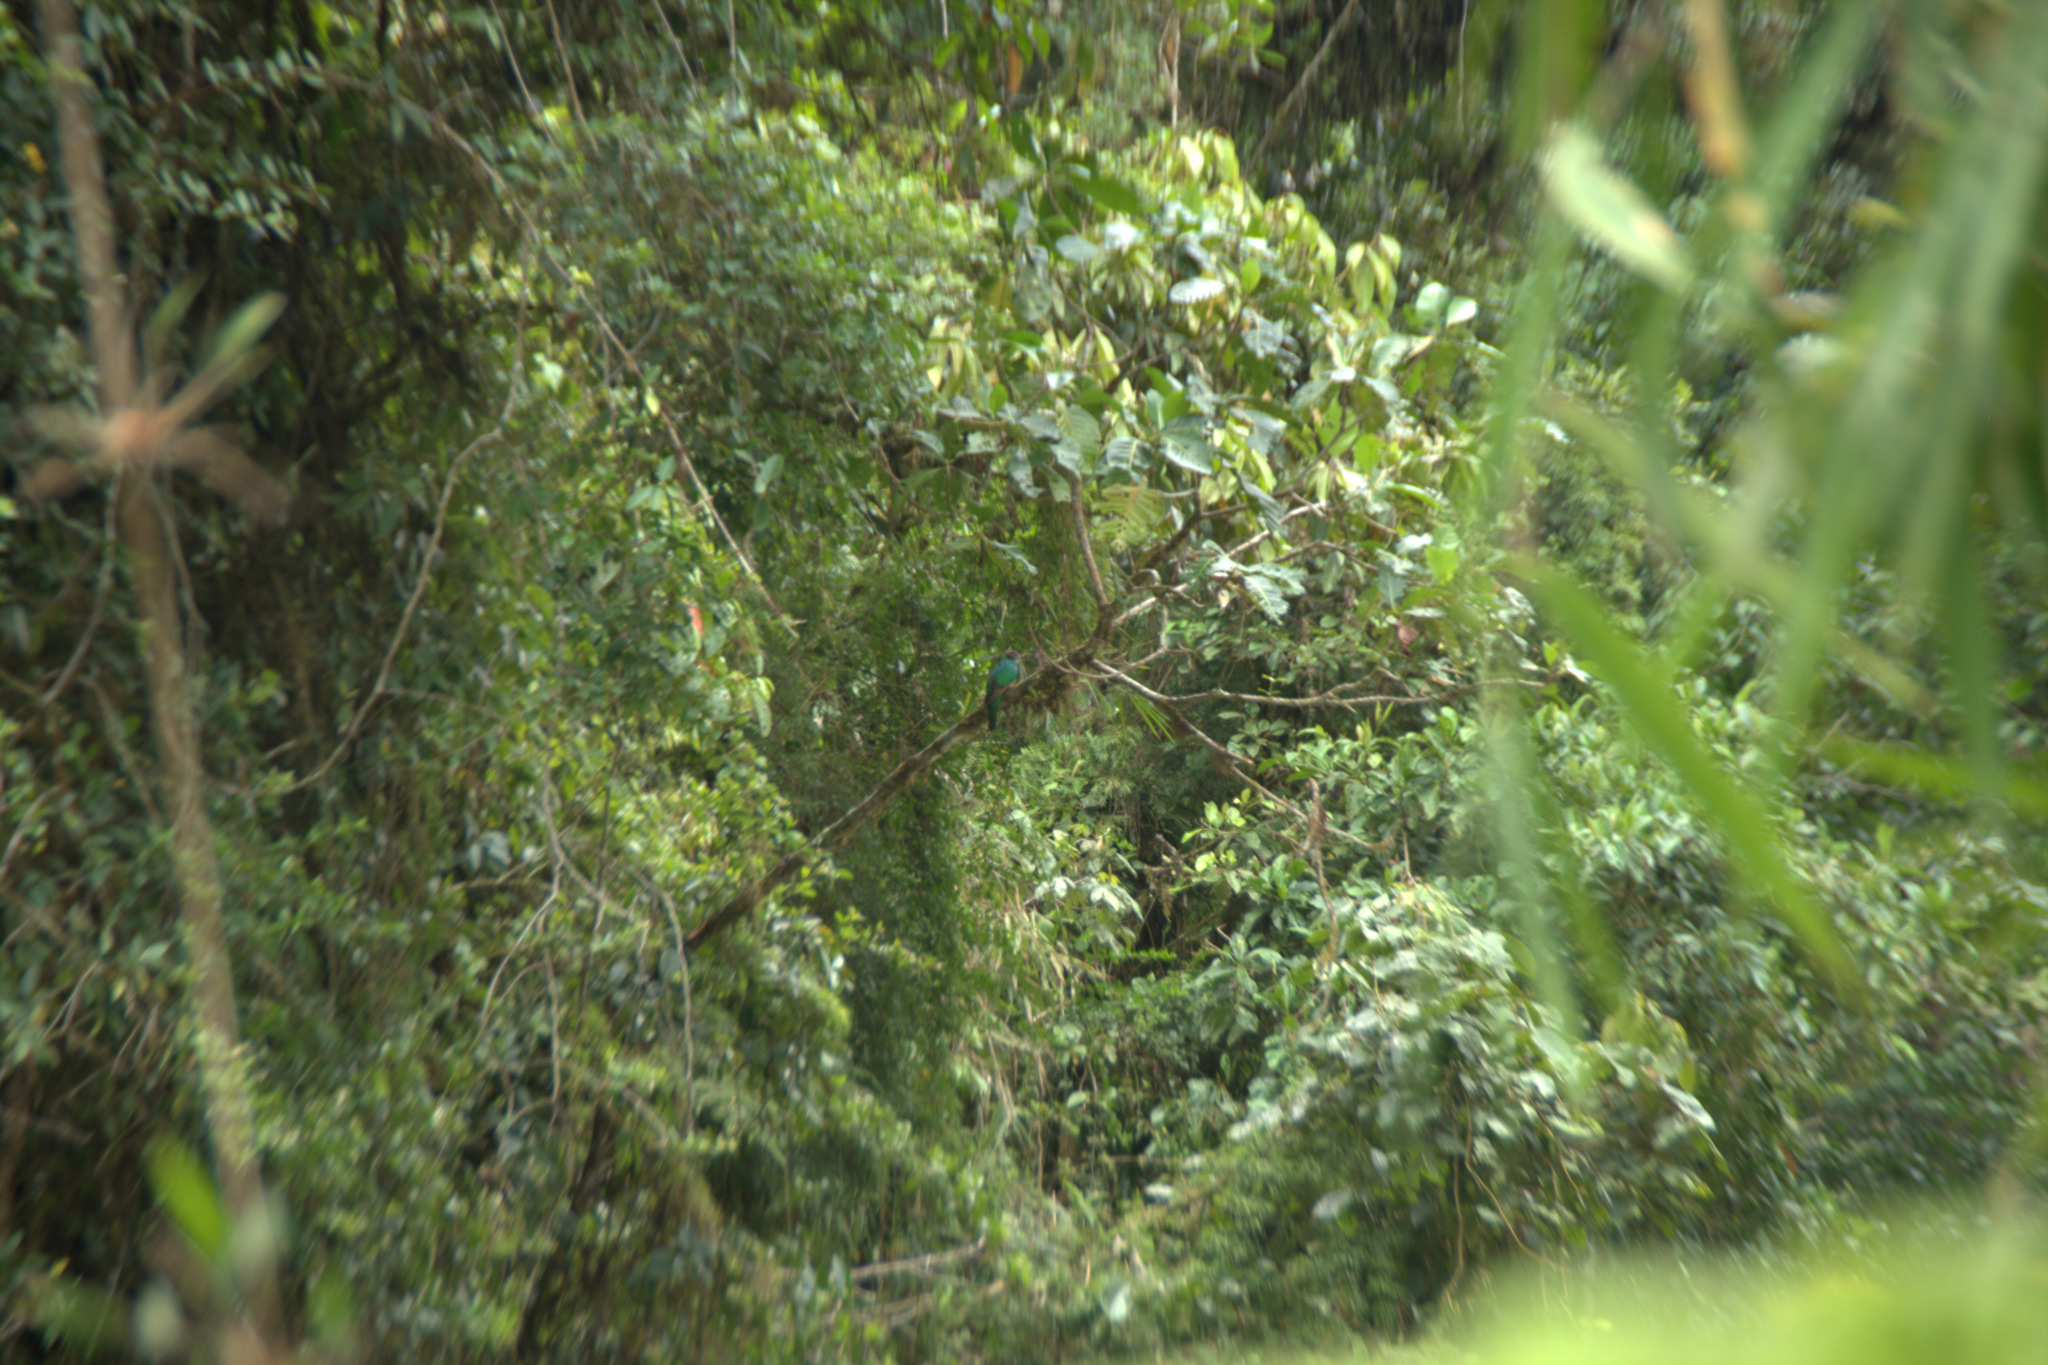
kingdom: Animalia
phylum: Chordata
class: Aves
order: Trogoniformes
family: Trogonidae
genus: Pharomachrus
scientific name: Pharomachrus antisianus
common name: Crested quetzal
